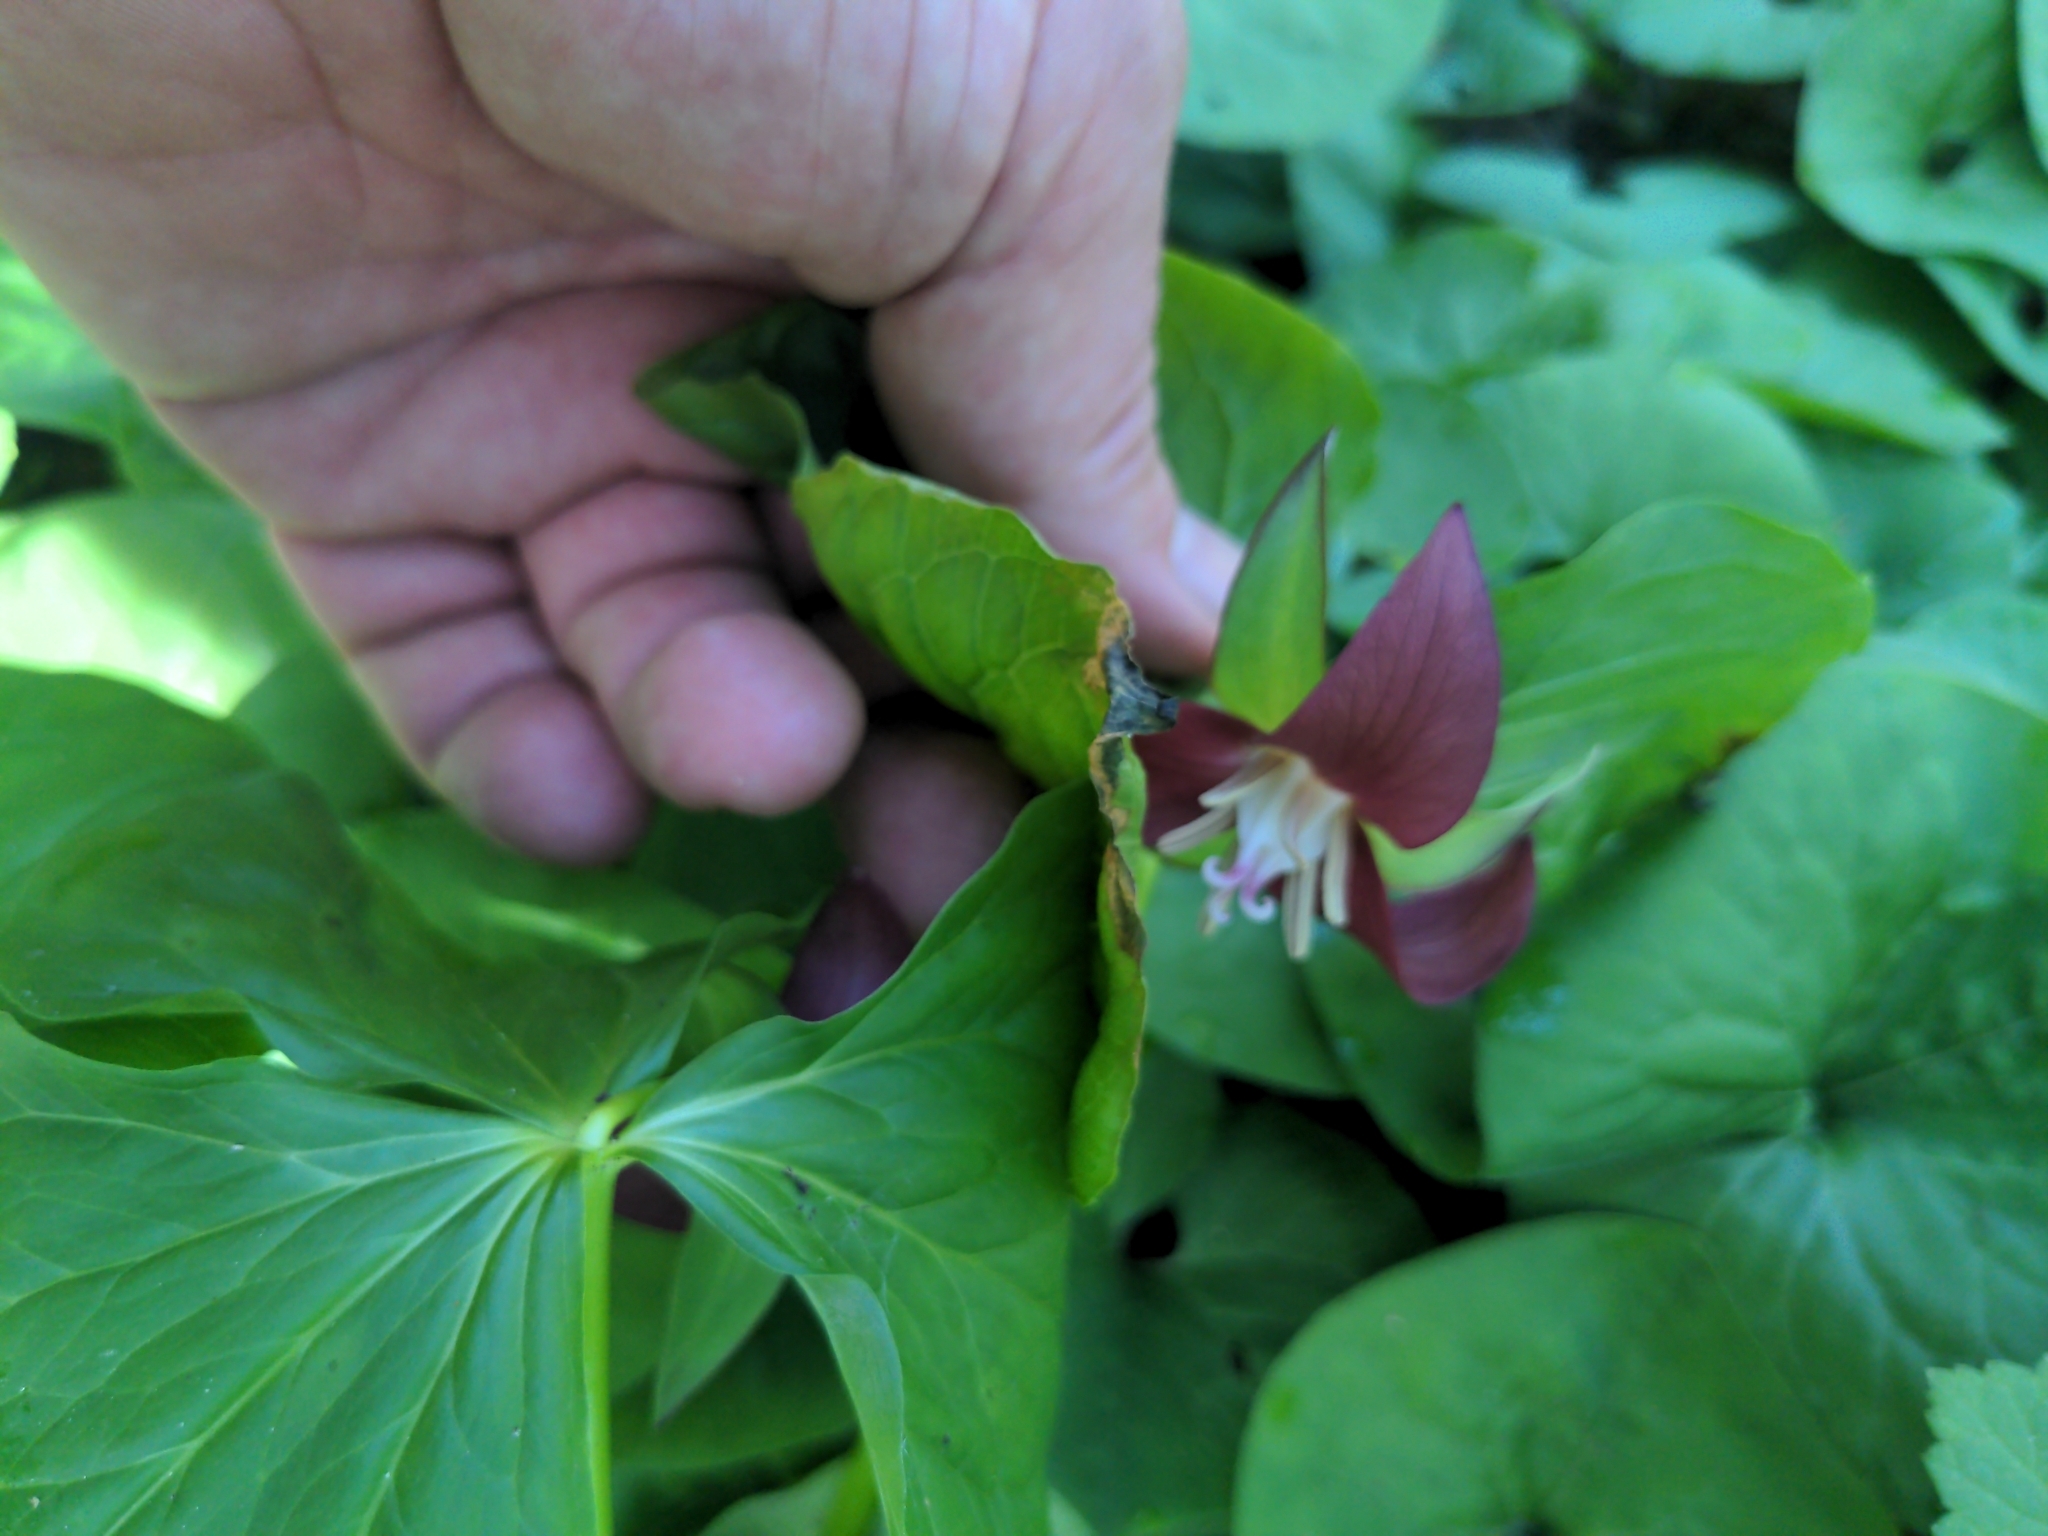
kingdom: Plantae
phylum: Tracheophyta
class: Liliopsida
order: Liliales
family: Melanthiaceae
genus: Trillium
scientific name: Trillium flexipes
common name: Drooping trillium
